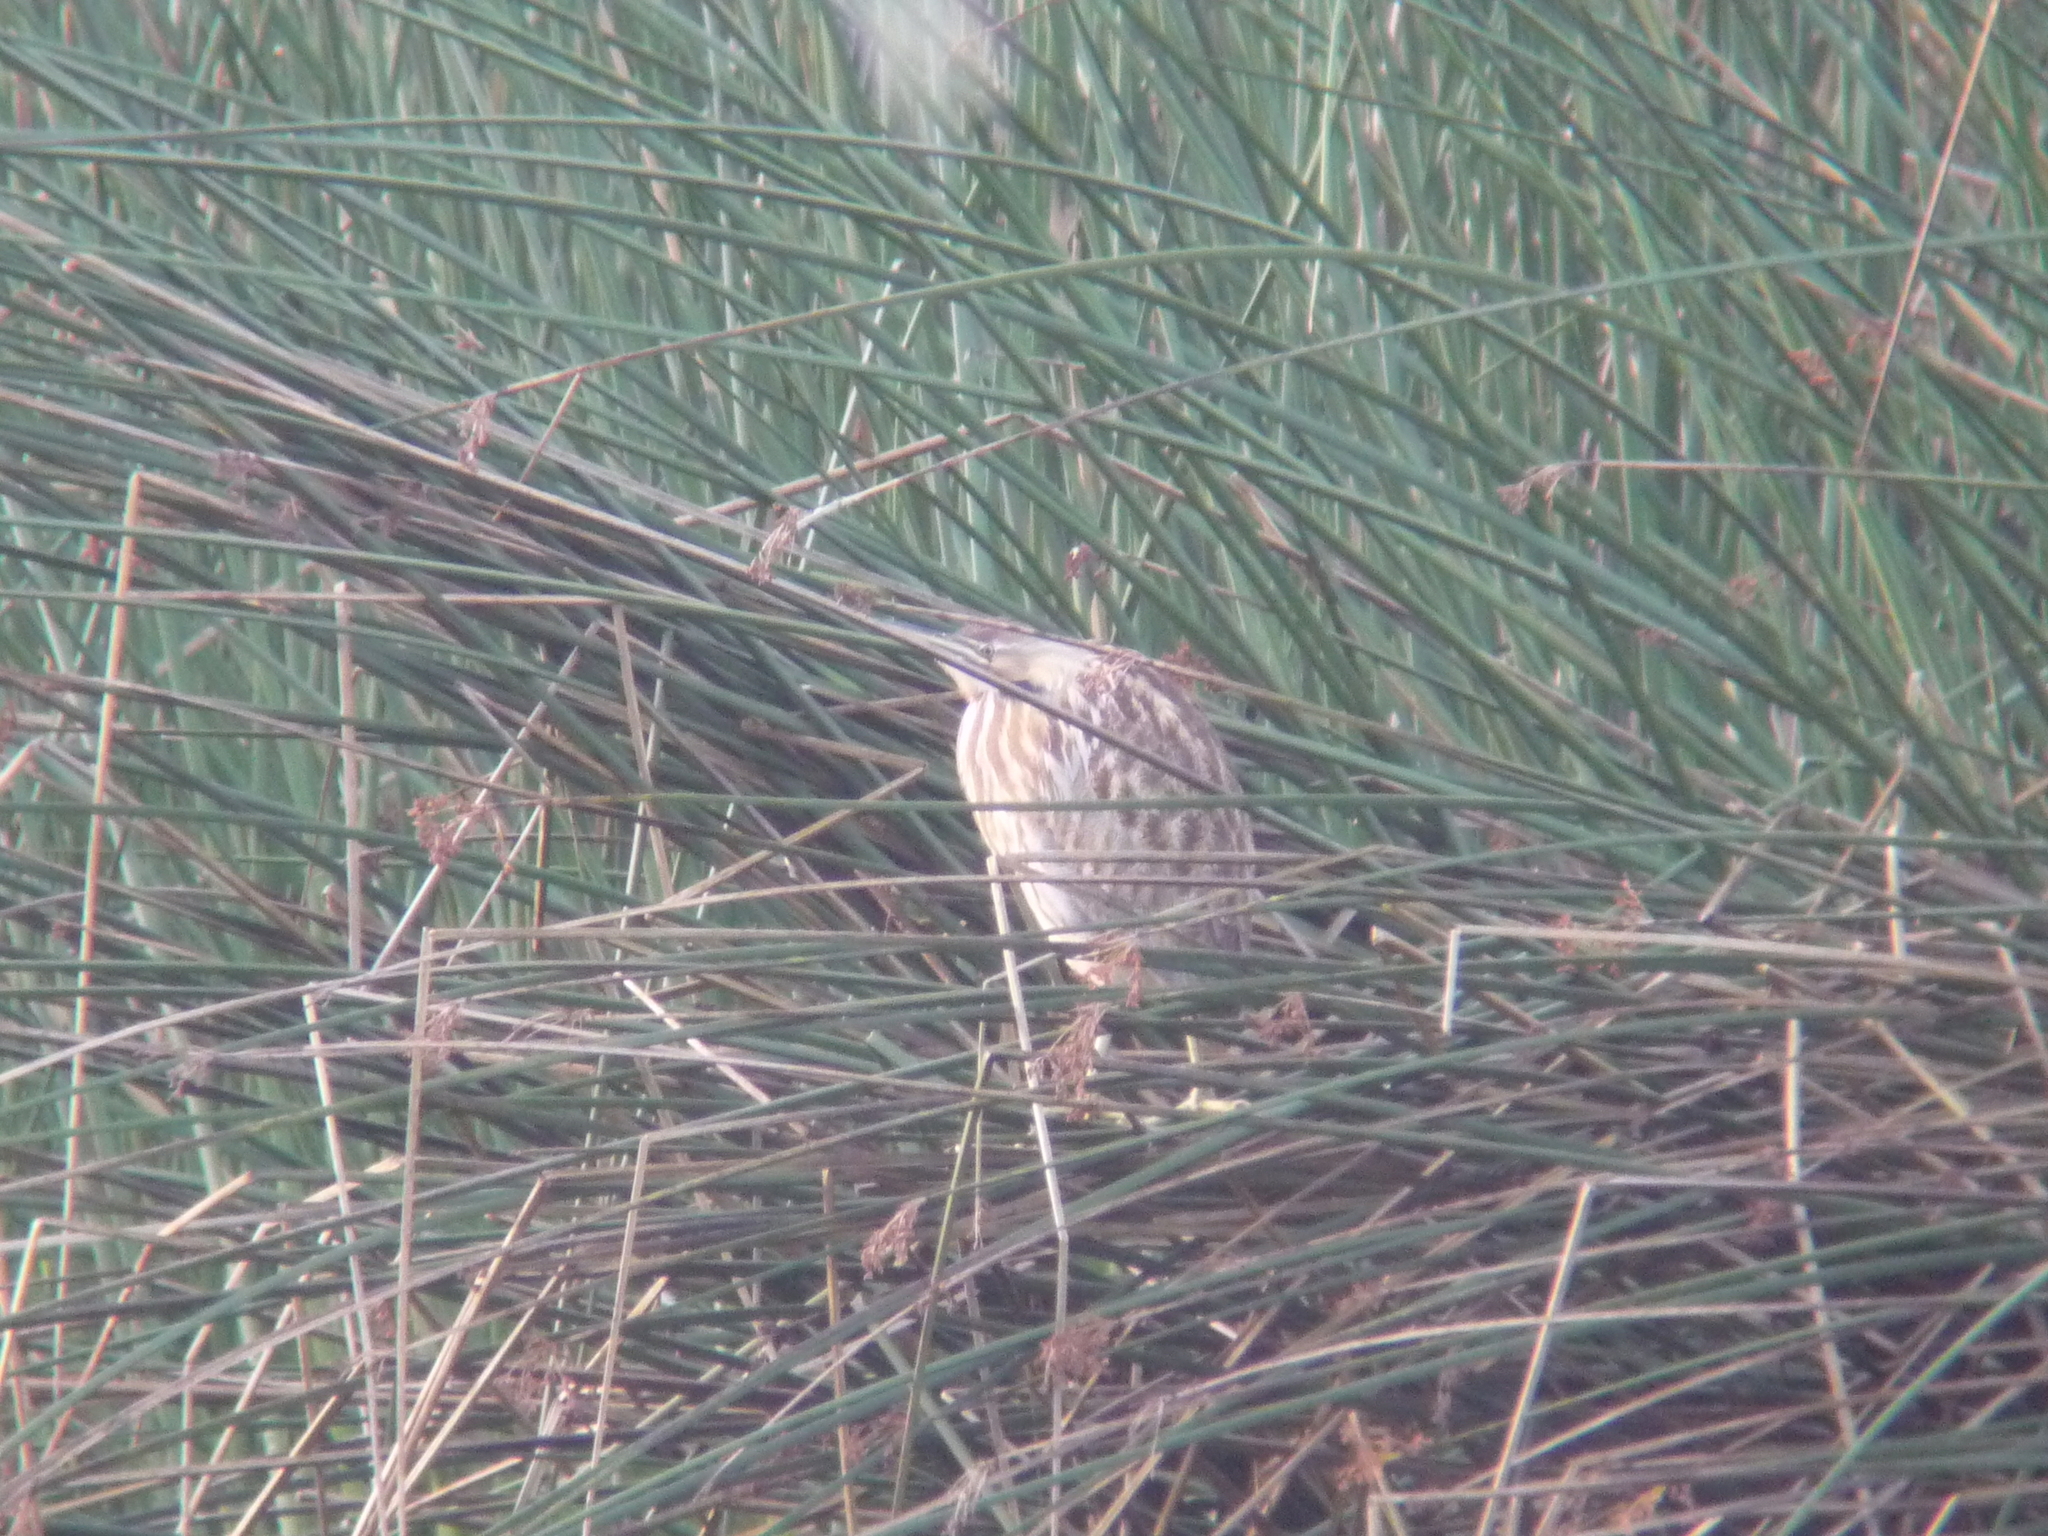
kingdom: Animalia
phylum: Chordata
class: Aves
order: Pelecaniformes
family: Ardeidae
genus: Botaurus
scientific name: Botaurus lentiginosus
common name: American bittern
